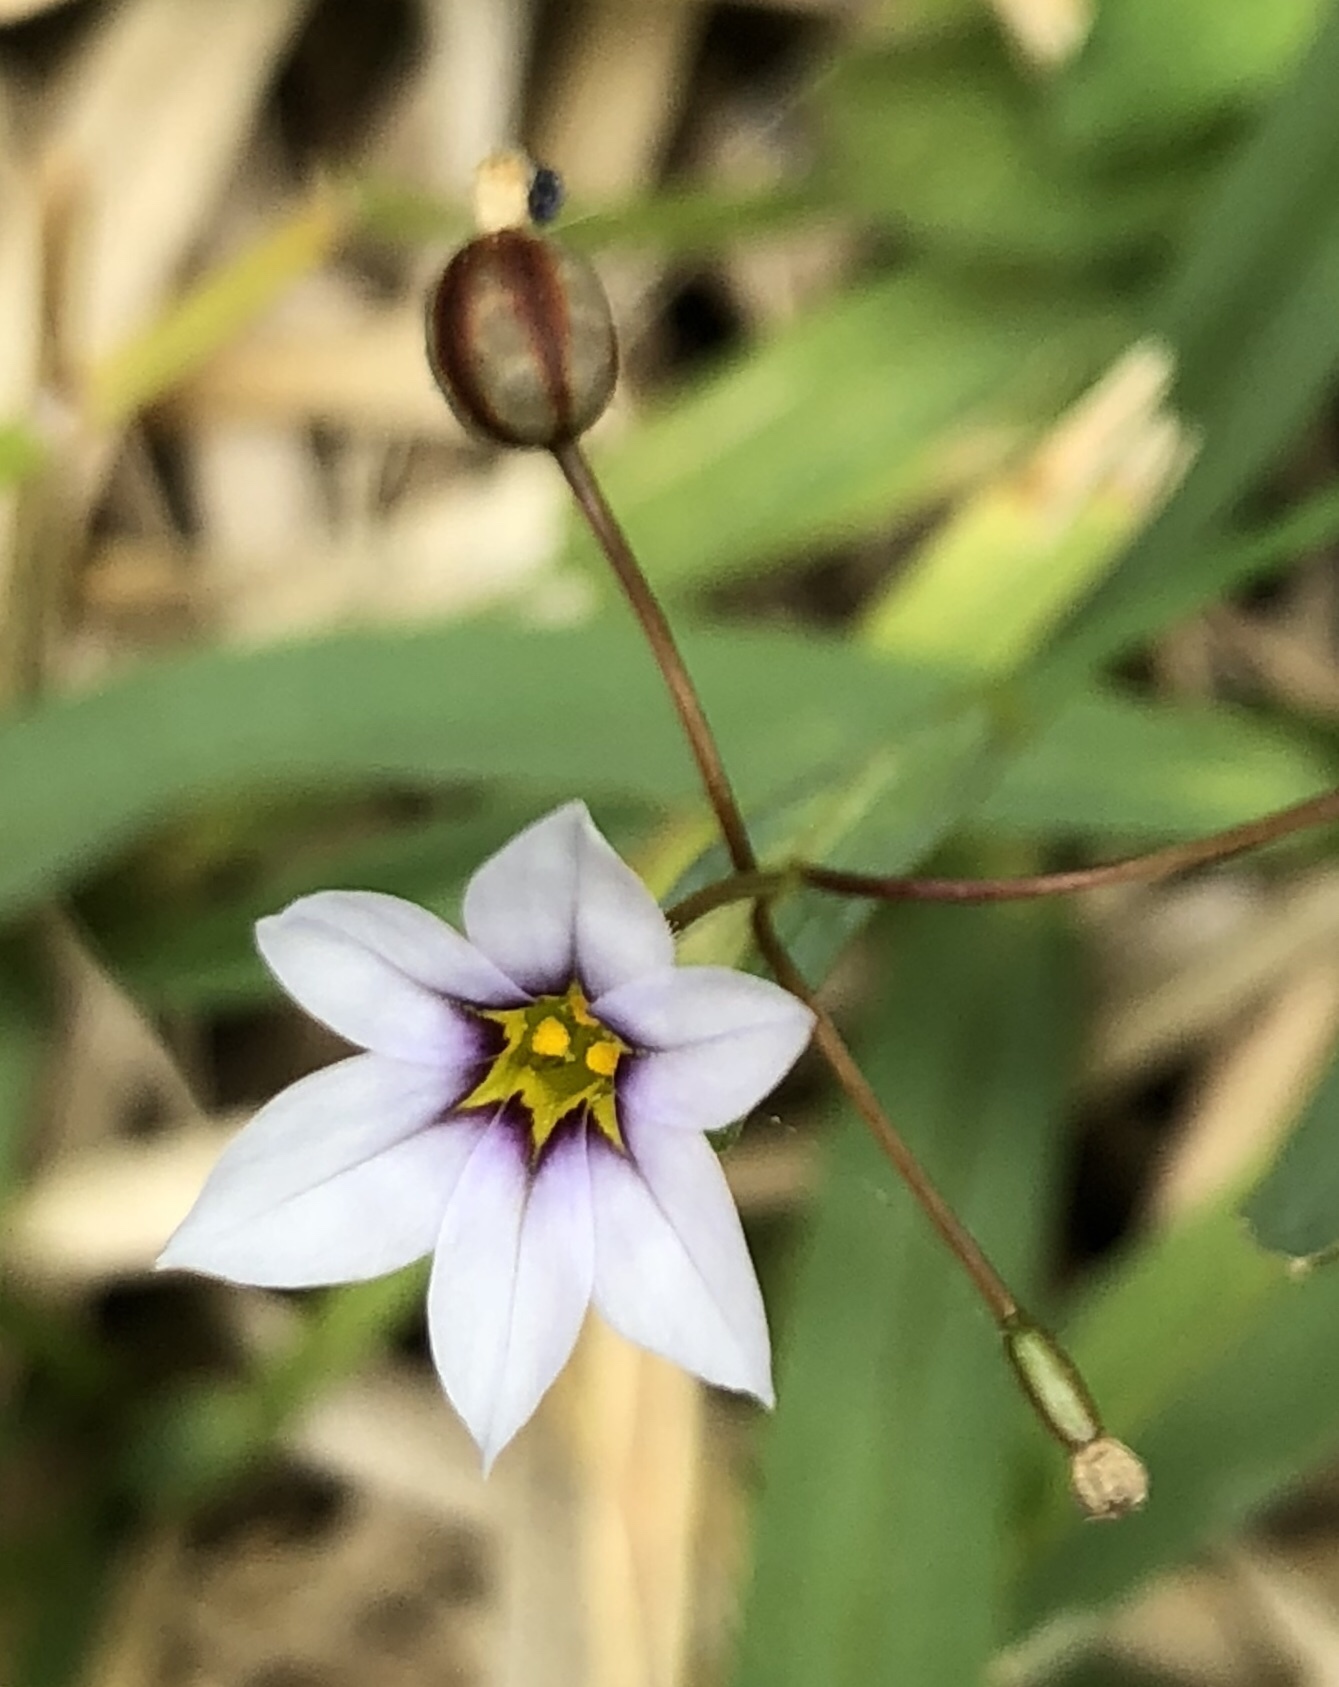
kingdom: Plantae
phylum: Tracheophyta
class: Liliopsida
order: Asparagales
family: Iridaceae
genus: Sisyrinchium
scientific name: Sisyrinchium micranthum
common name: Bermuda pigroot
